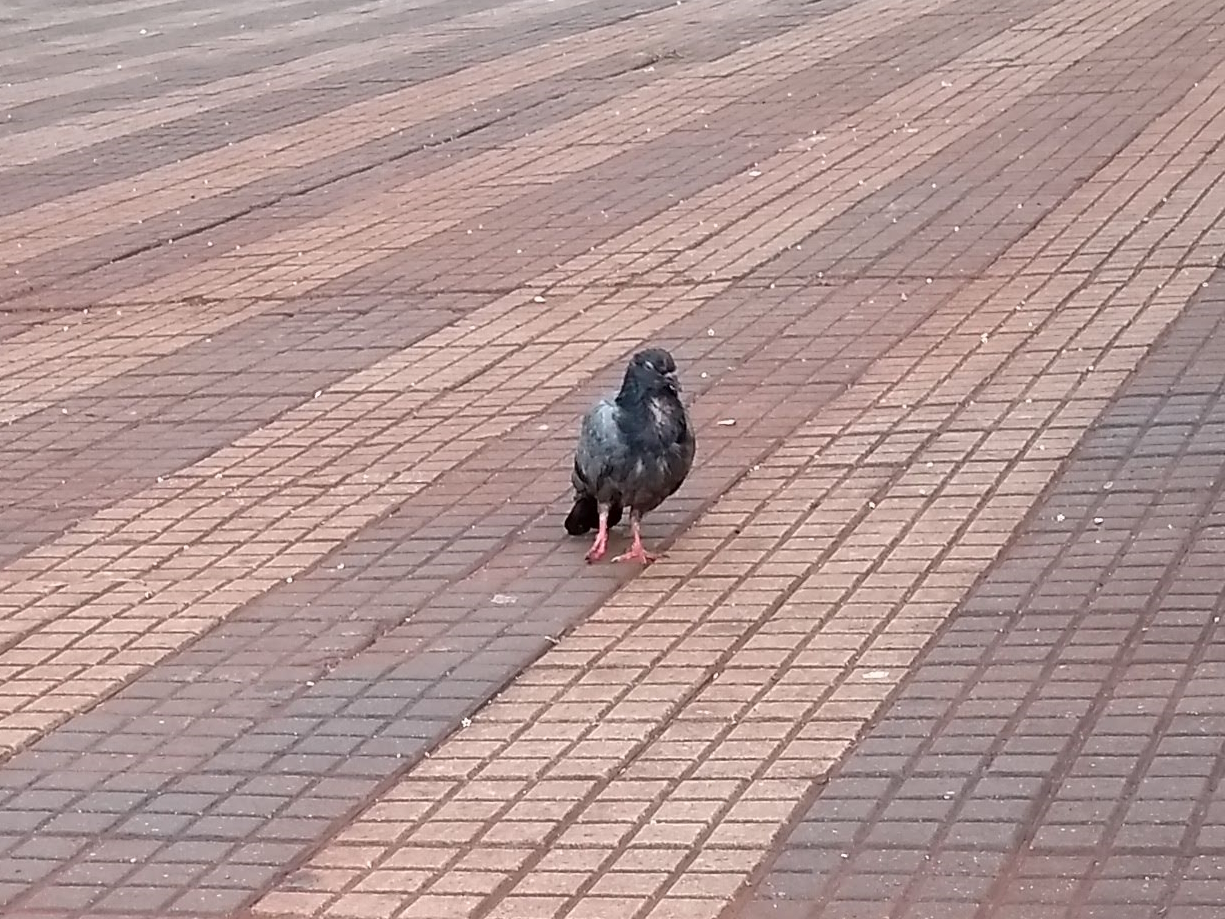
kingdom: Animalia
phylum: Chordata
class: Aves
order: Columbiformes
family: Columbidae
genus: Columba
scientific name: Columba livia
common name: Rock pigeon
